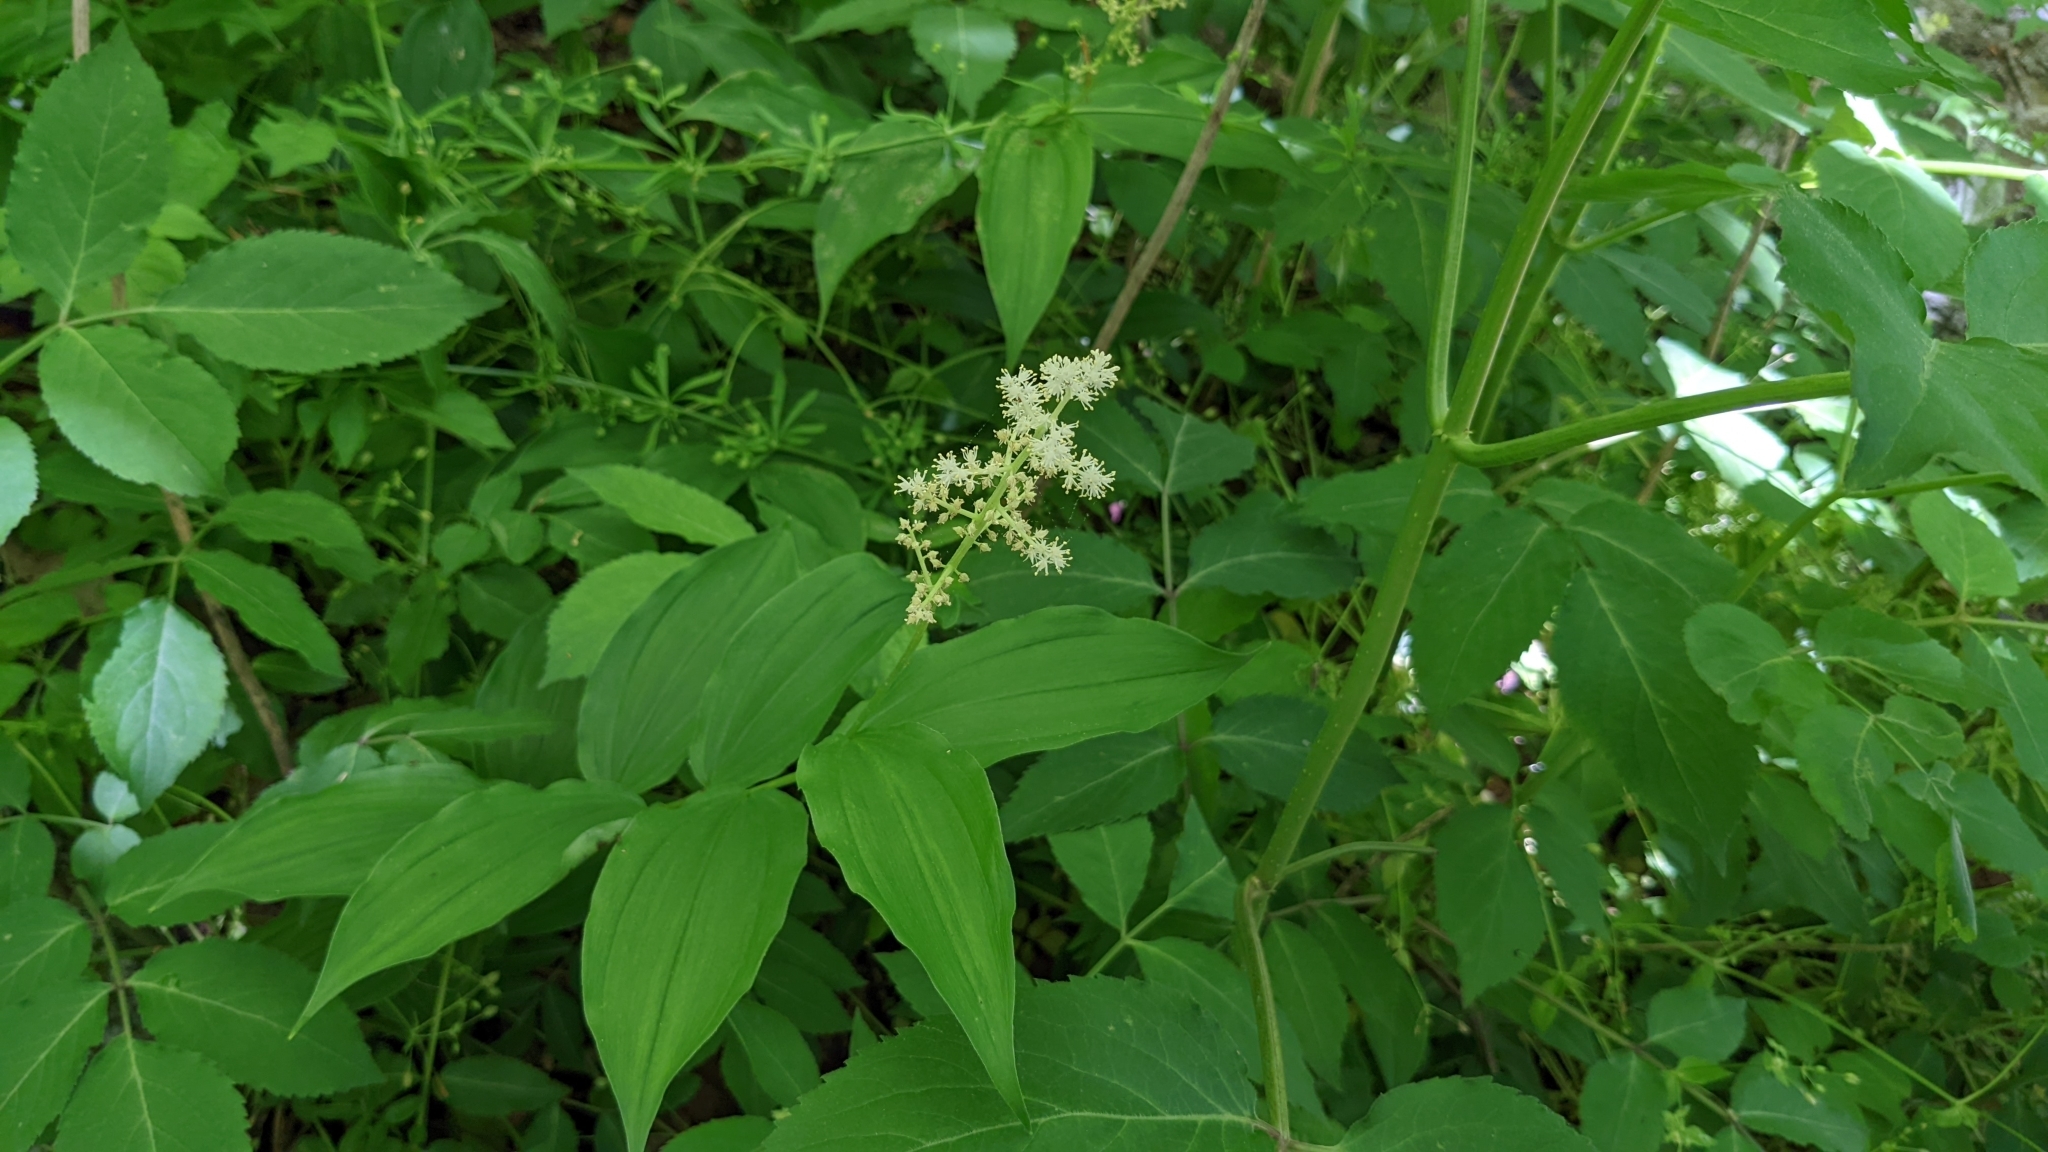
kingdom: Plantae
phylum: Tracheophyta
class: Liliopsida
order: Asparagales
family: Asparagaceae
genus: Maianthemum
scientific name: Maianthemum racemosum
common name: False spikenard
